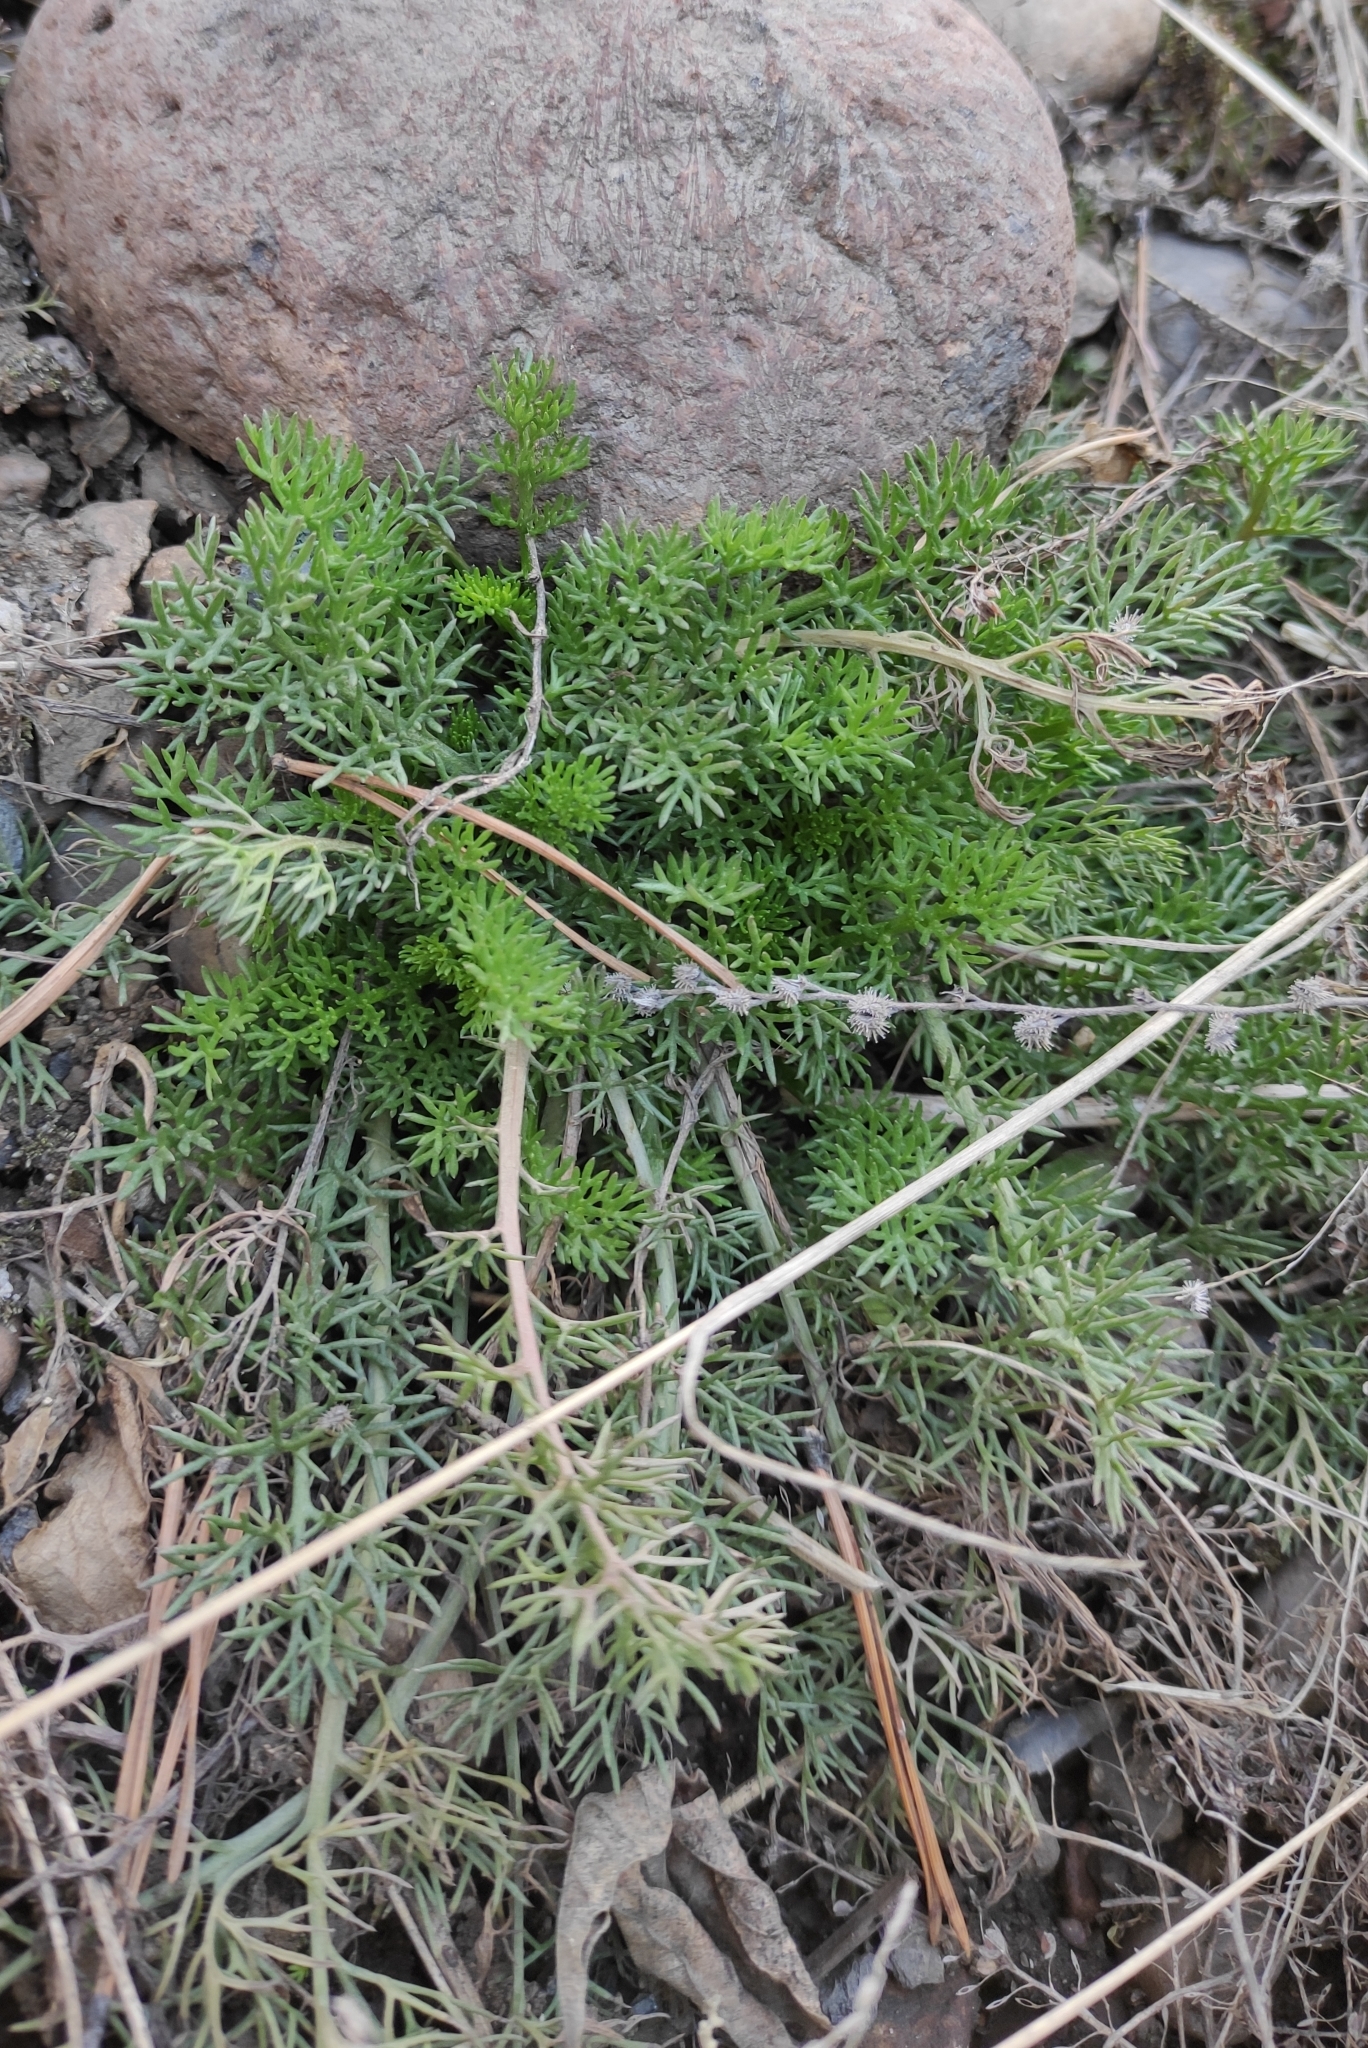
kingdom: Plantae
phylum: Tracheophyta
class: Magnoliopsida
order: Asterales
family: Asteraceae
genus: Tripleurospermum
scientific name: Tripleurospermum inodorum
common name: Scentless mayweed
